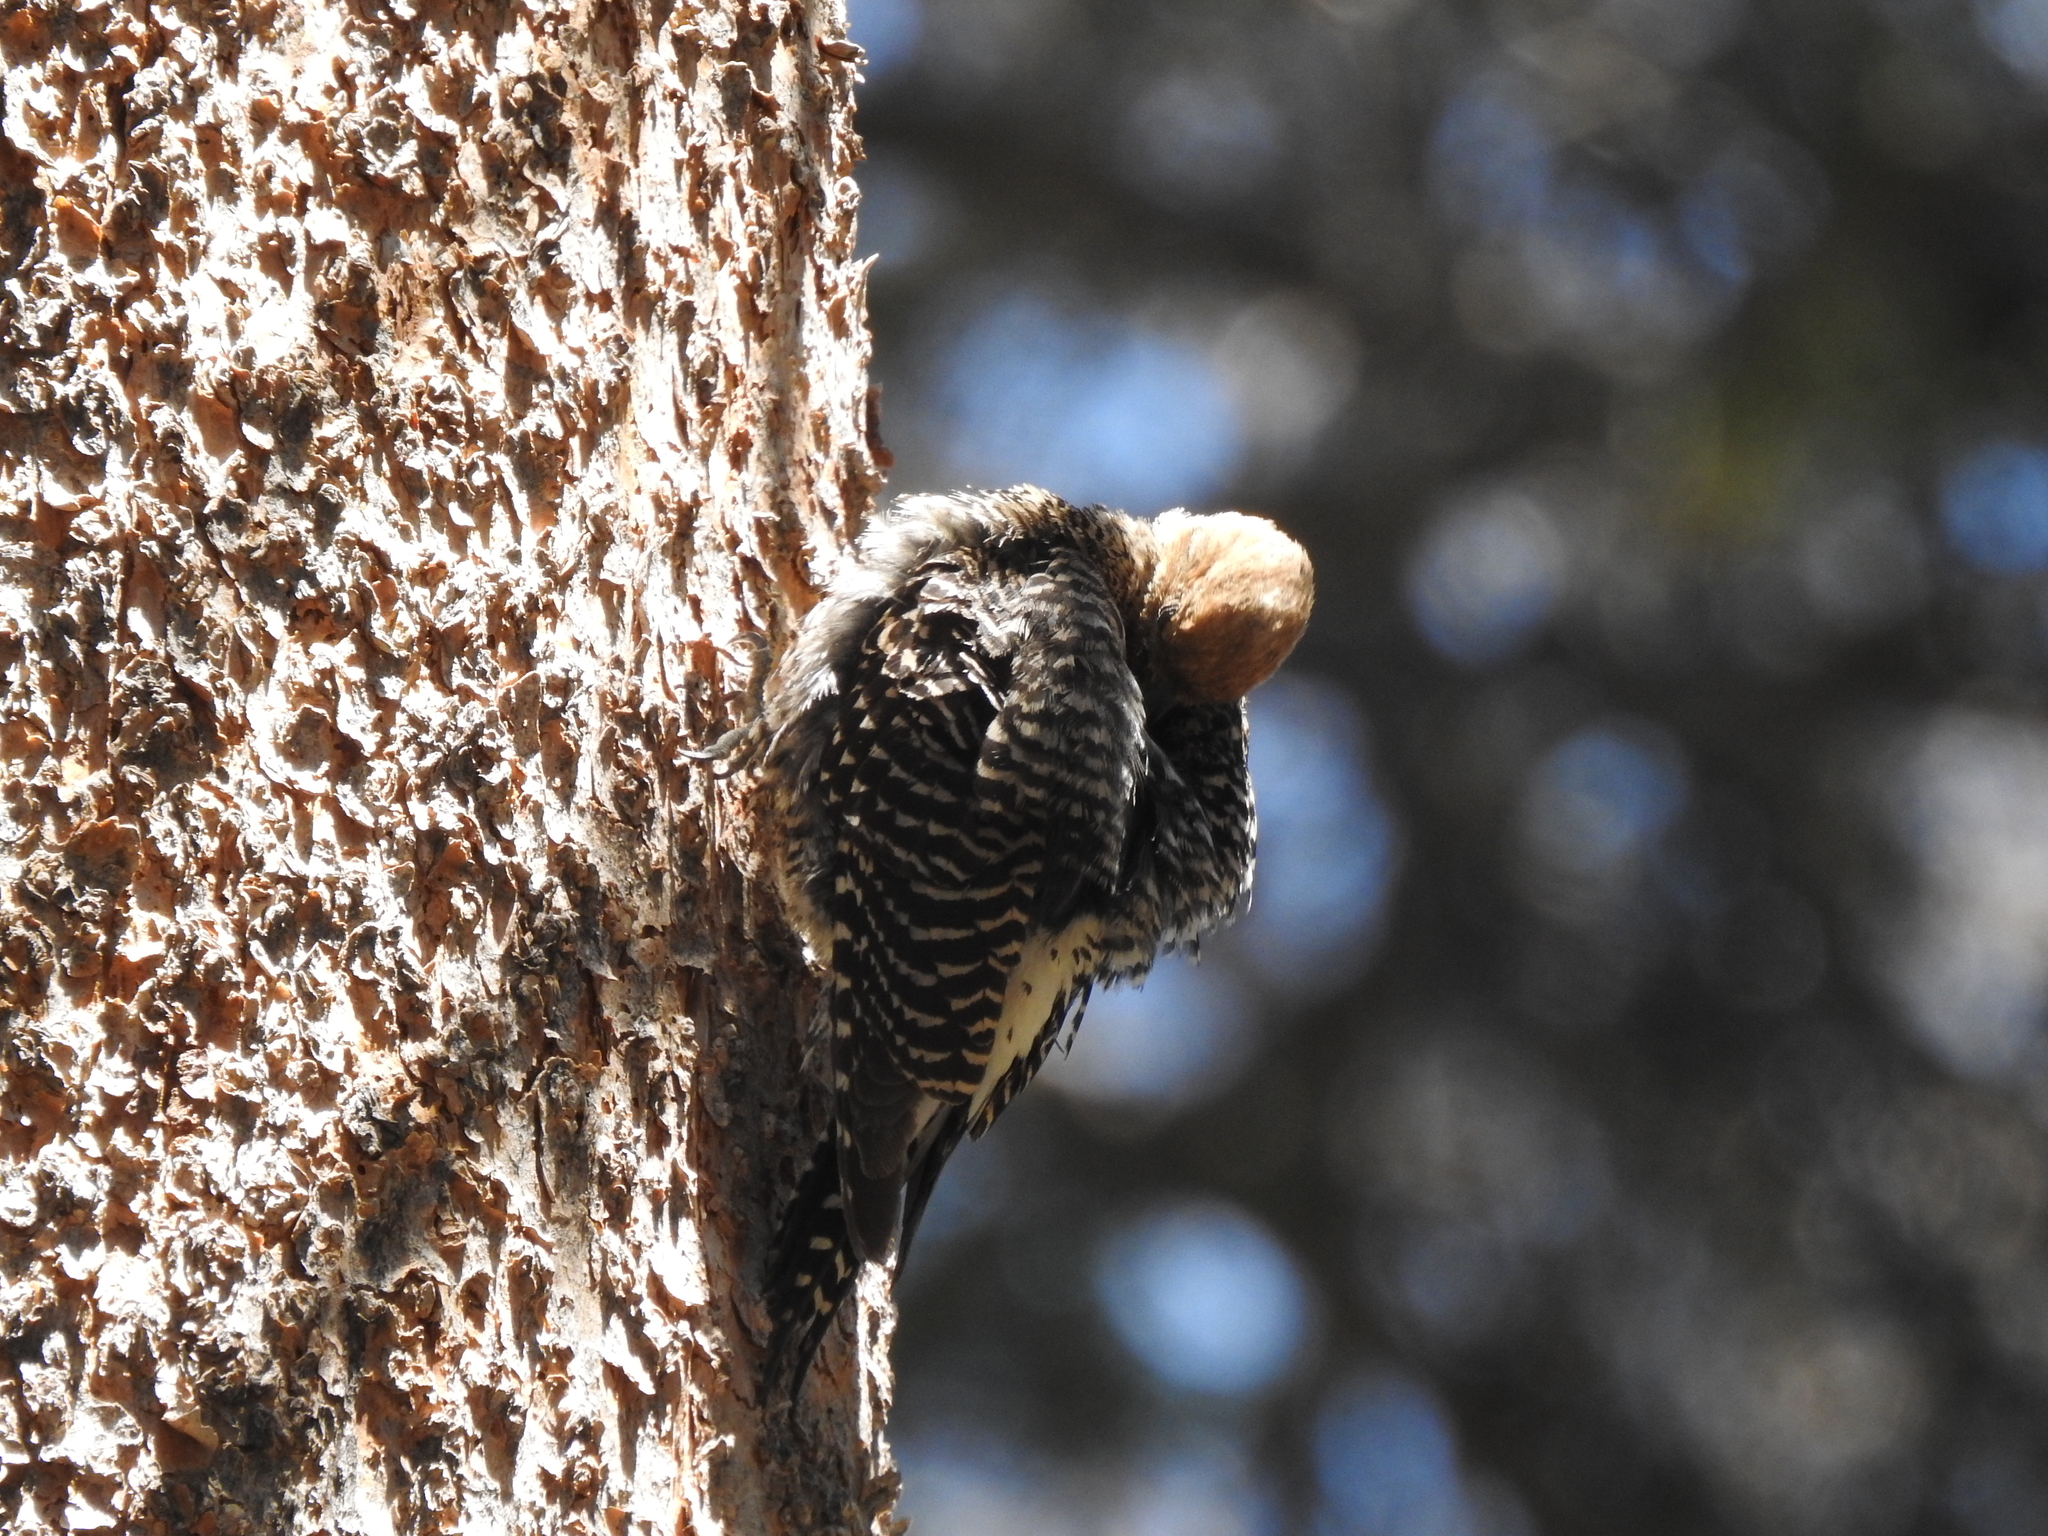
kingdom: Animalia
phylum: Chordata
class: Aves
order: Piciformes
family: Picidae
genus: Sphyrapicus
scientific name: Sphyrapicus thyroideus
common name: Williamson's sapsucker
